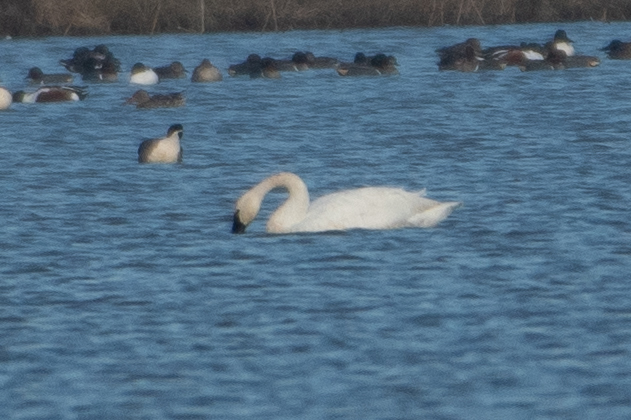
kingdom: Animalia
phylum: Chordata
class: Aves
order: Anseriformes
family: Anatidae
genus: Cygnus
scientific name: Cygnus columbianus
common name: Tundra swan
